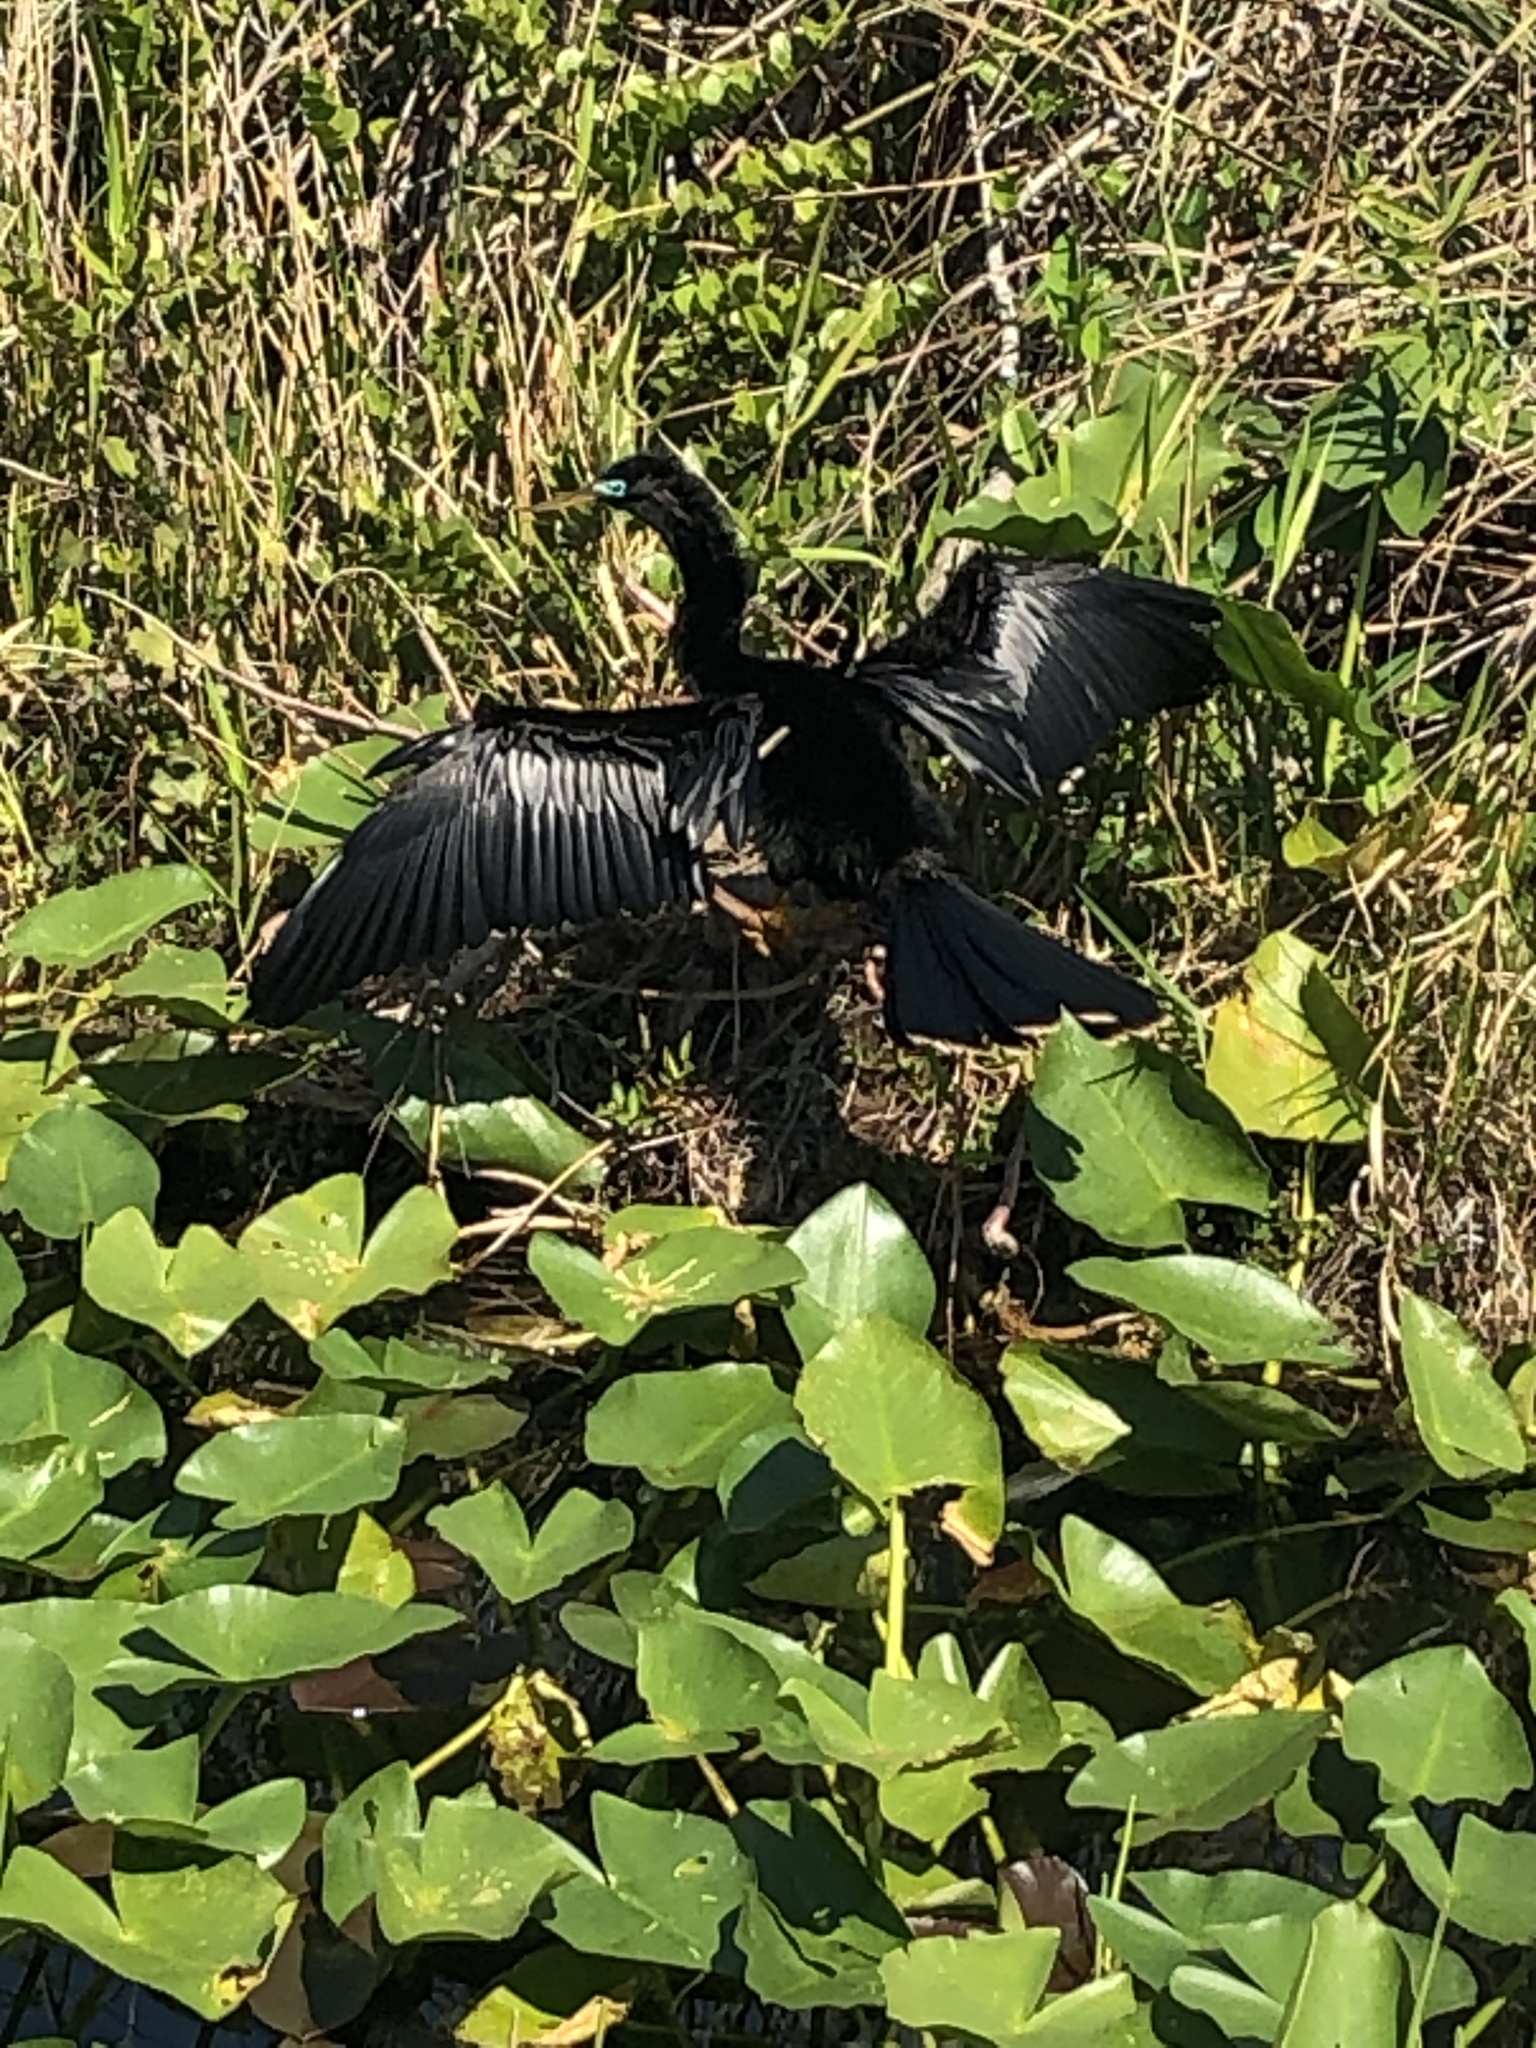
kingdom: Animalia
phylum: Chordata
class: Aves
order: Suliformes
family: Anhingidae
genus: Anhinga
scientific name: Anhinga anhinga
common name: Anhinga
